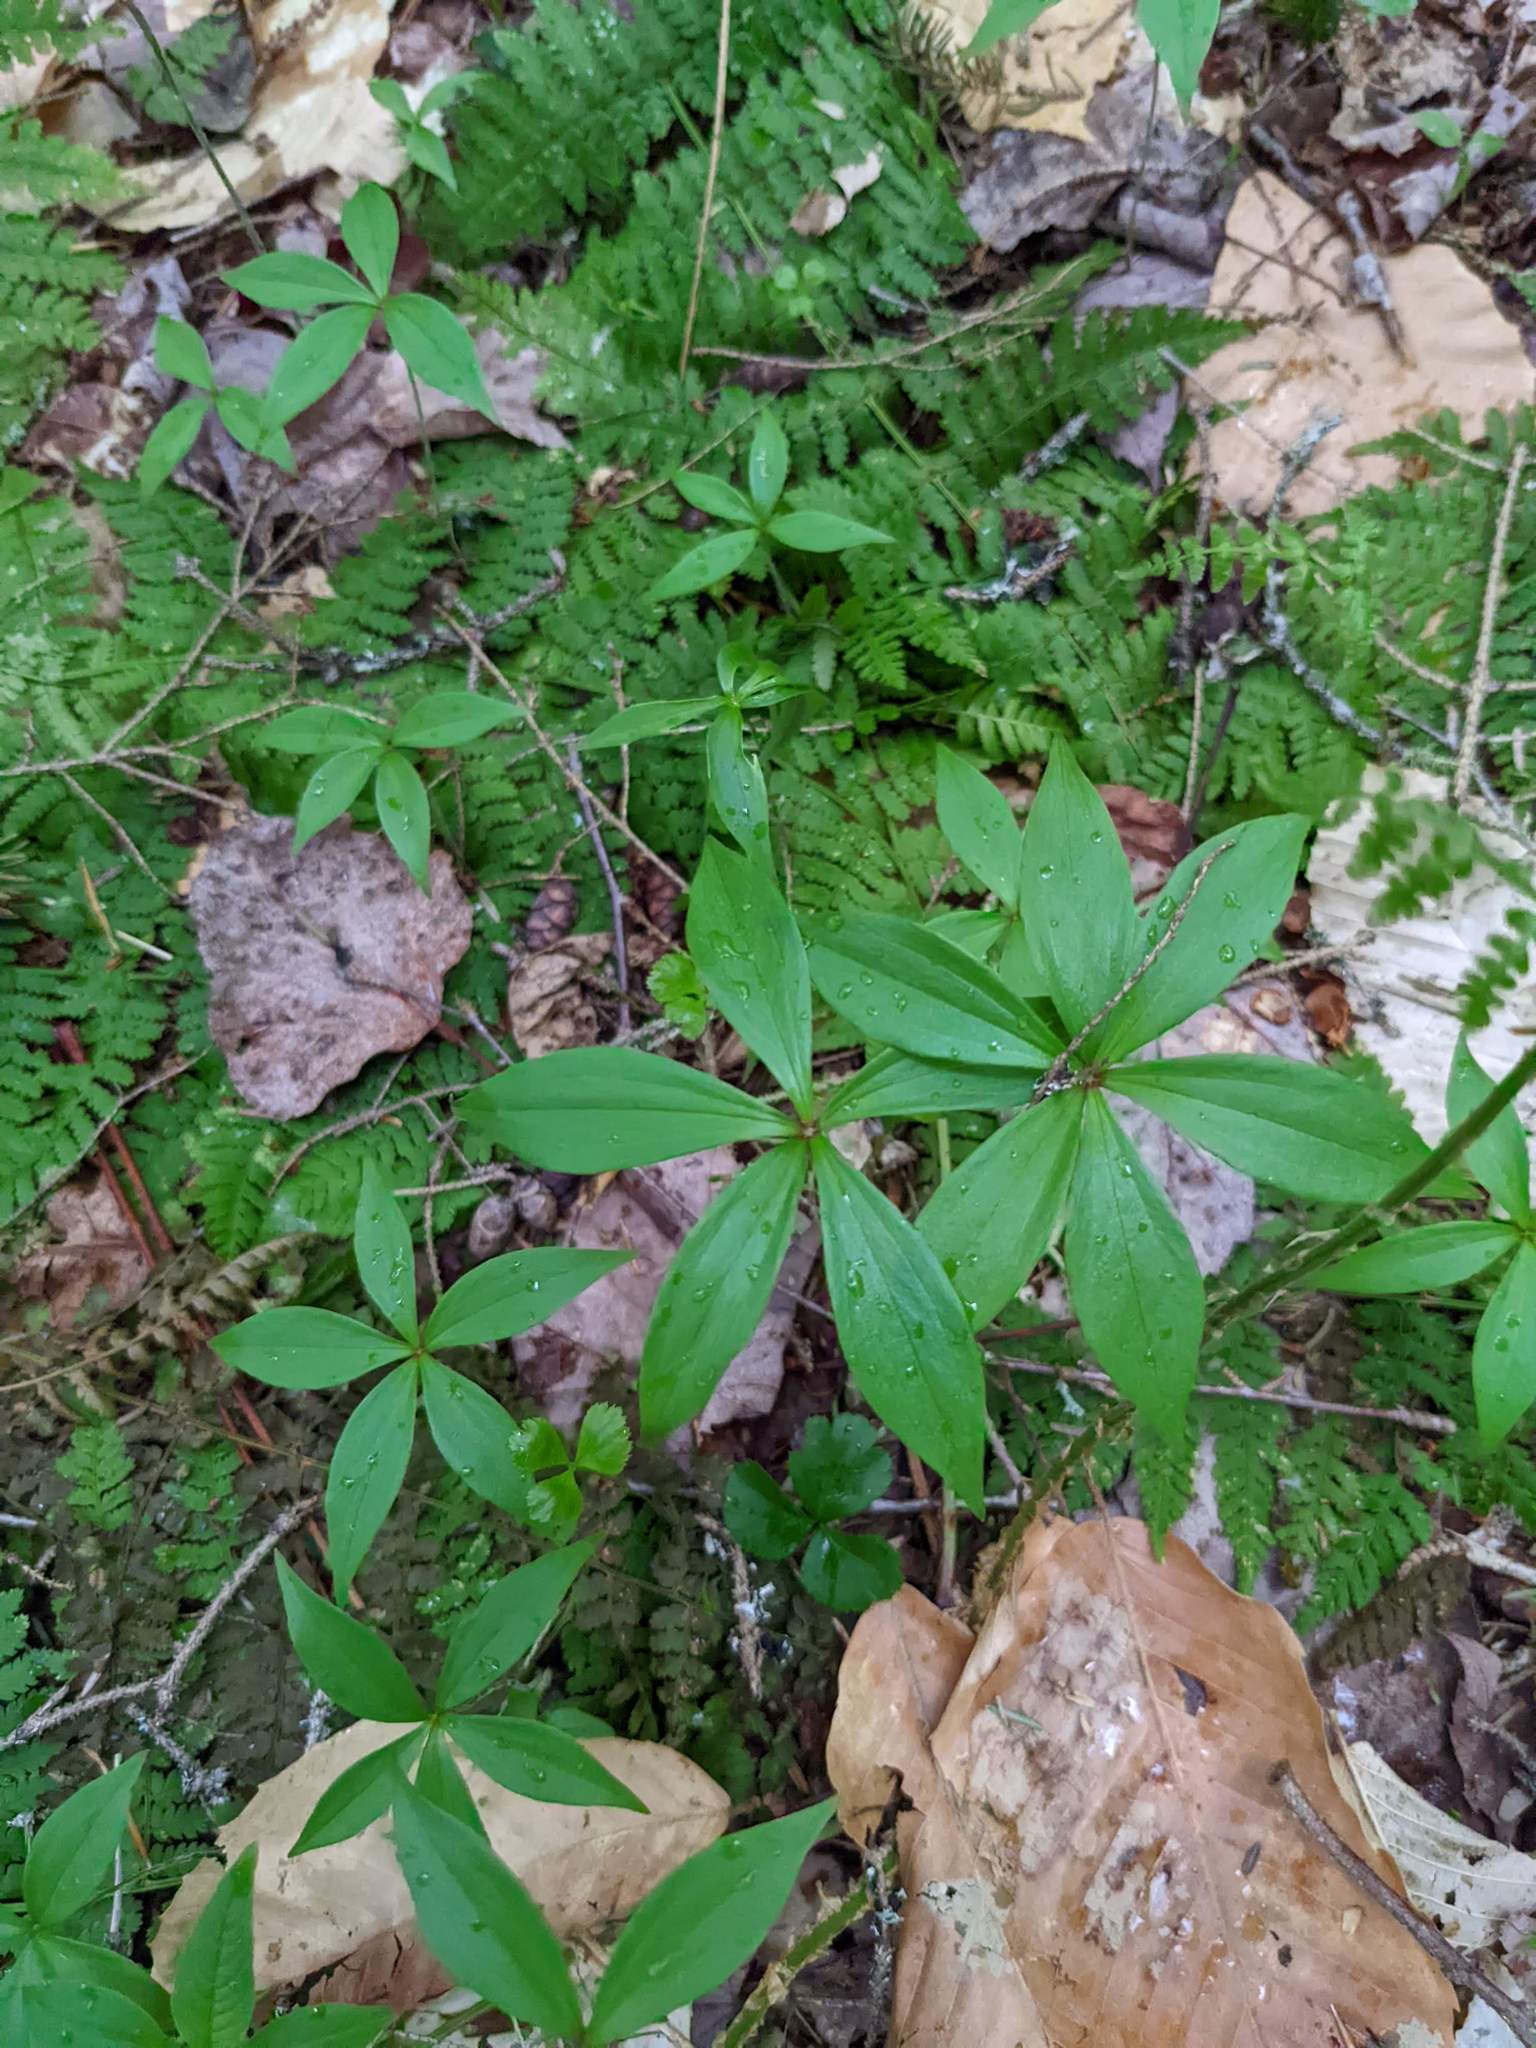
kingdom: Plantae
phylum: Tracheophyta
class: Liliopsida
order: Liliales
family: Liliaceae
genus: Medeola
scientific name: Medeola virginiana
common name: Indian cucumber-root
